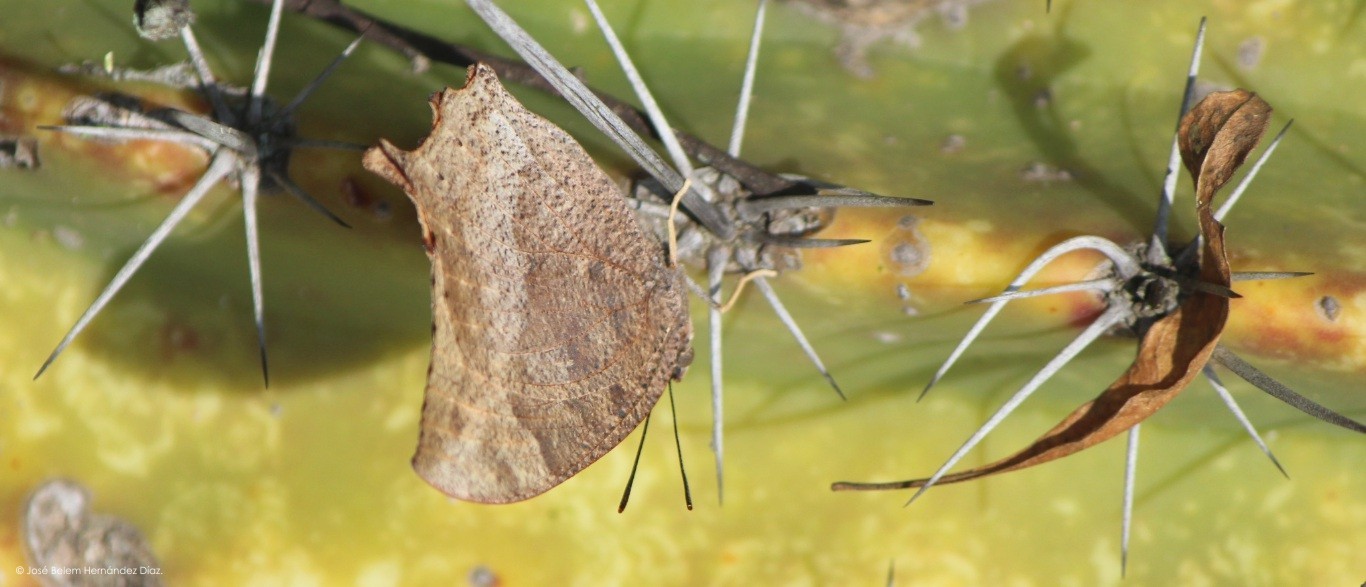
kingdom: Animalia
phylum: Arthropoda
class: Insecta
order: Lepidoptera
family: Nymphalidae
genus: Anaea
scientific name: Anaea aidea
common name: Tropical leafwing
